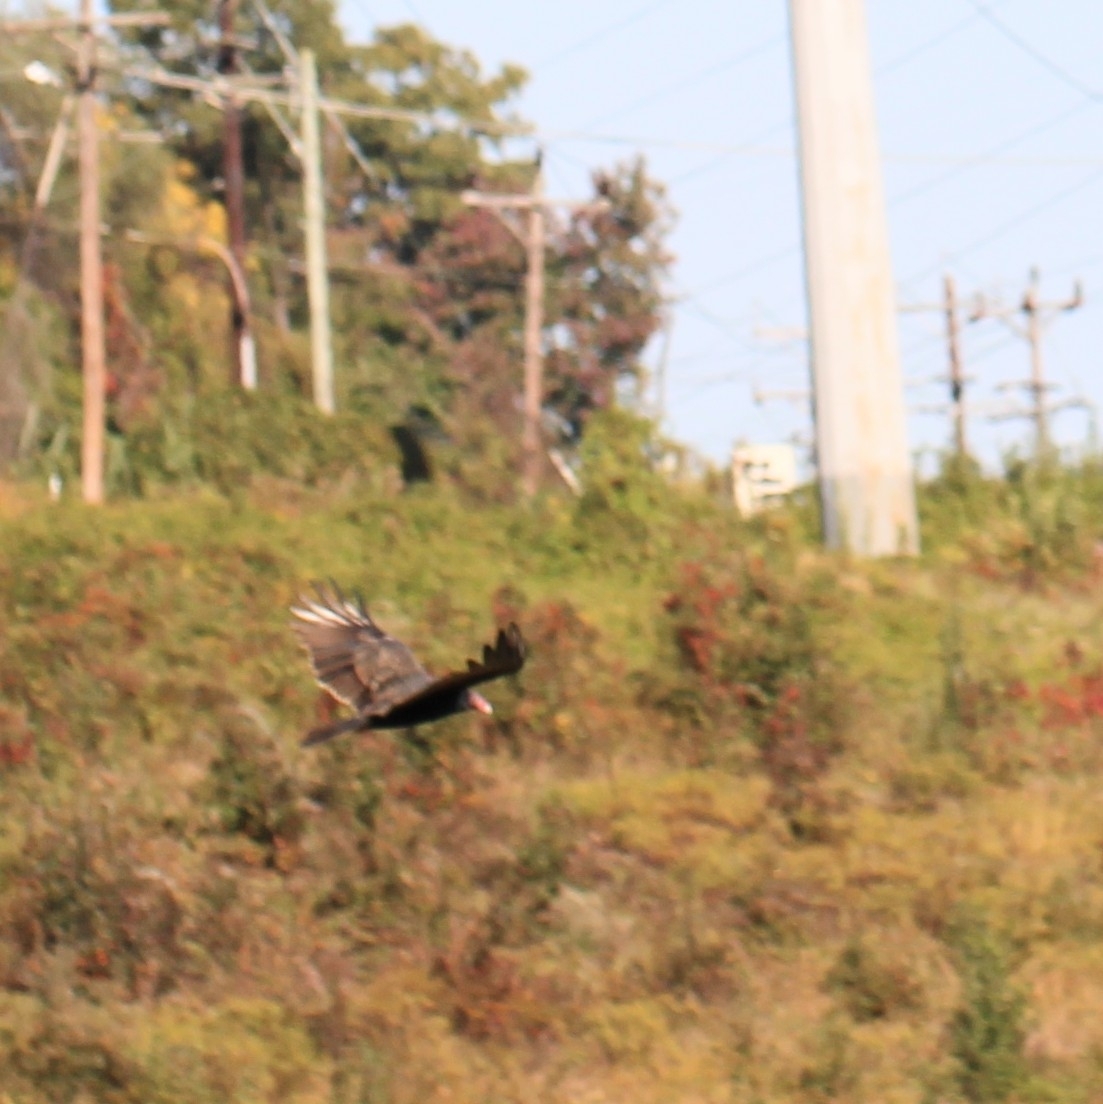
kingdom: Animalia
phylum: Chordata
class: Aves
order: Accipitriformes
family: Cathartidae
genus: Cathartes
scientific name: Cathartes aura
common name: Turkey vulture
